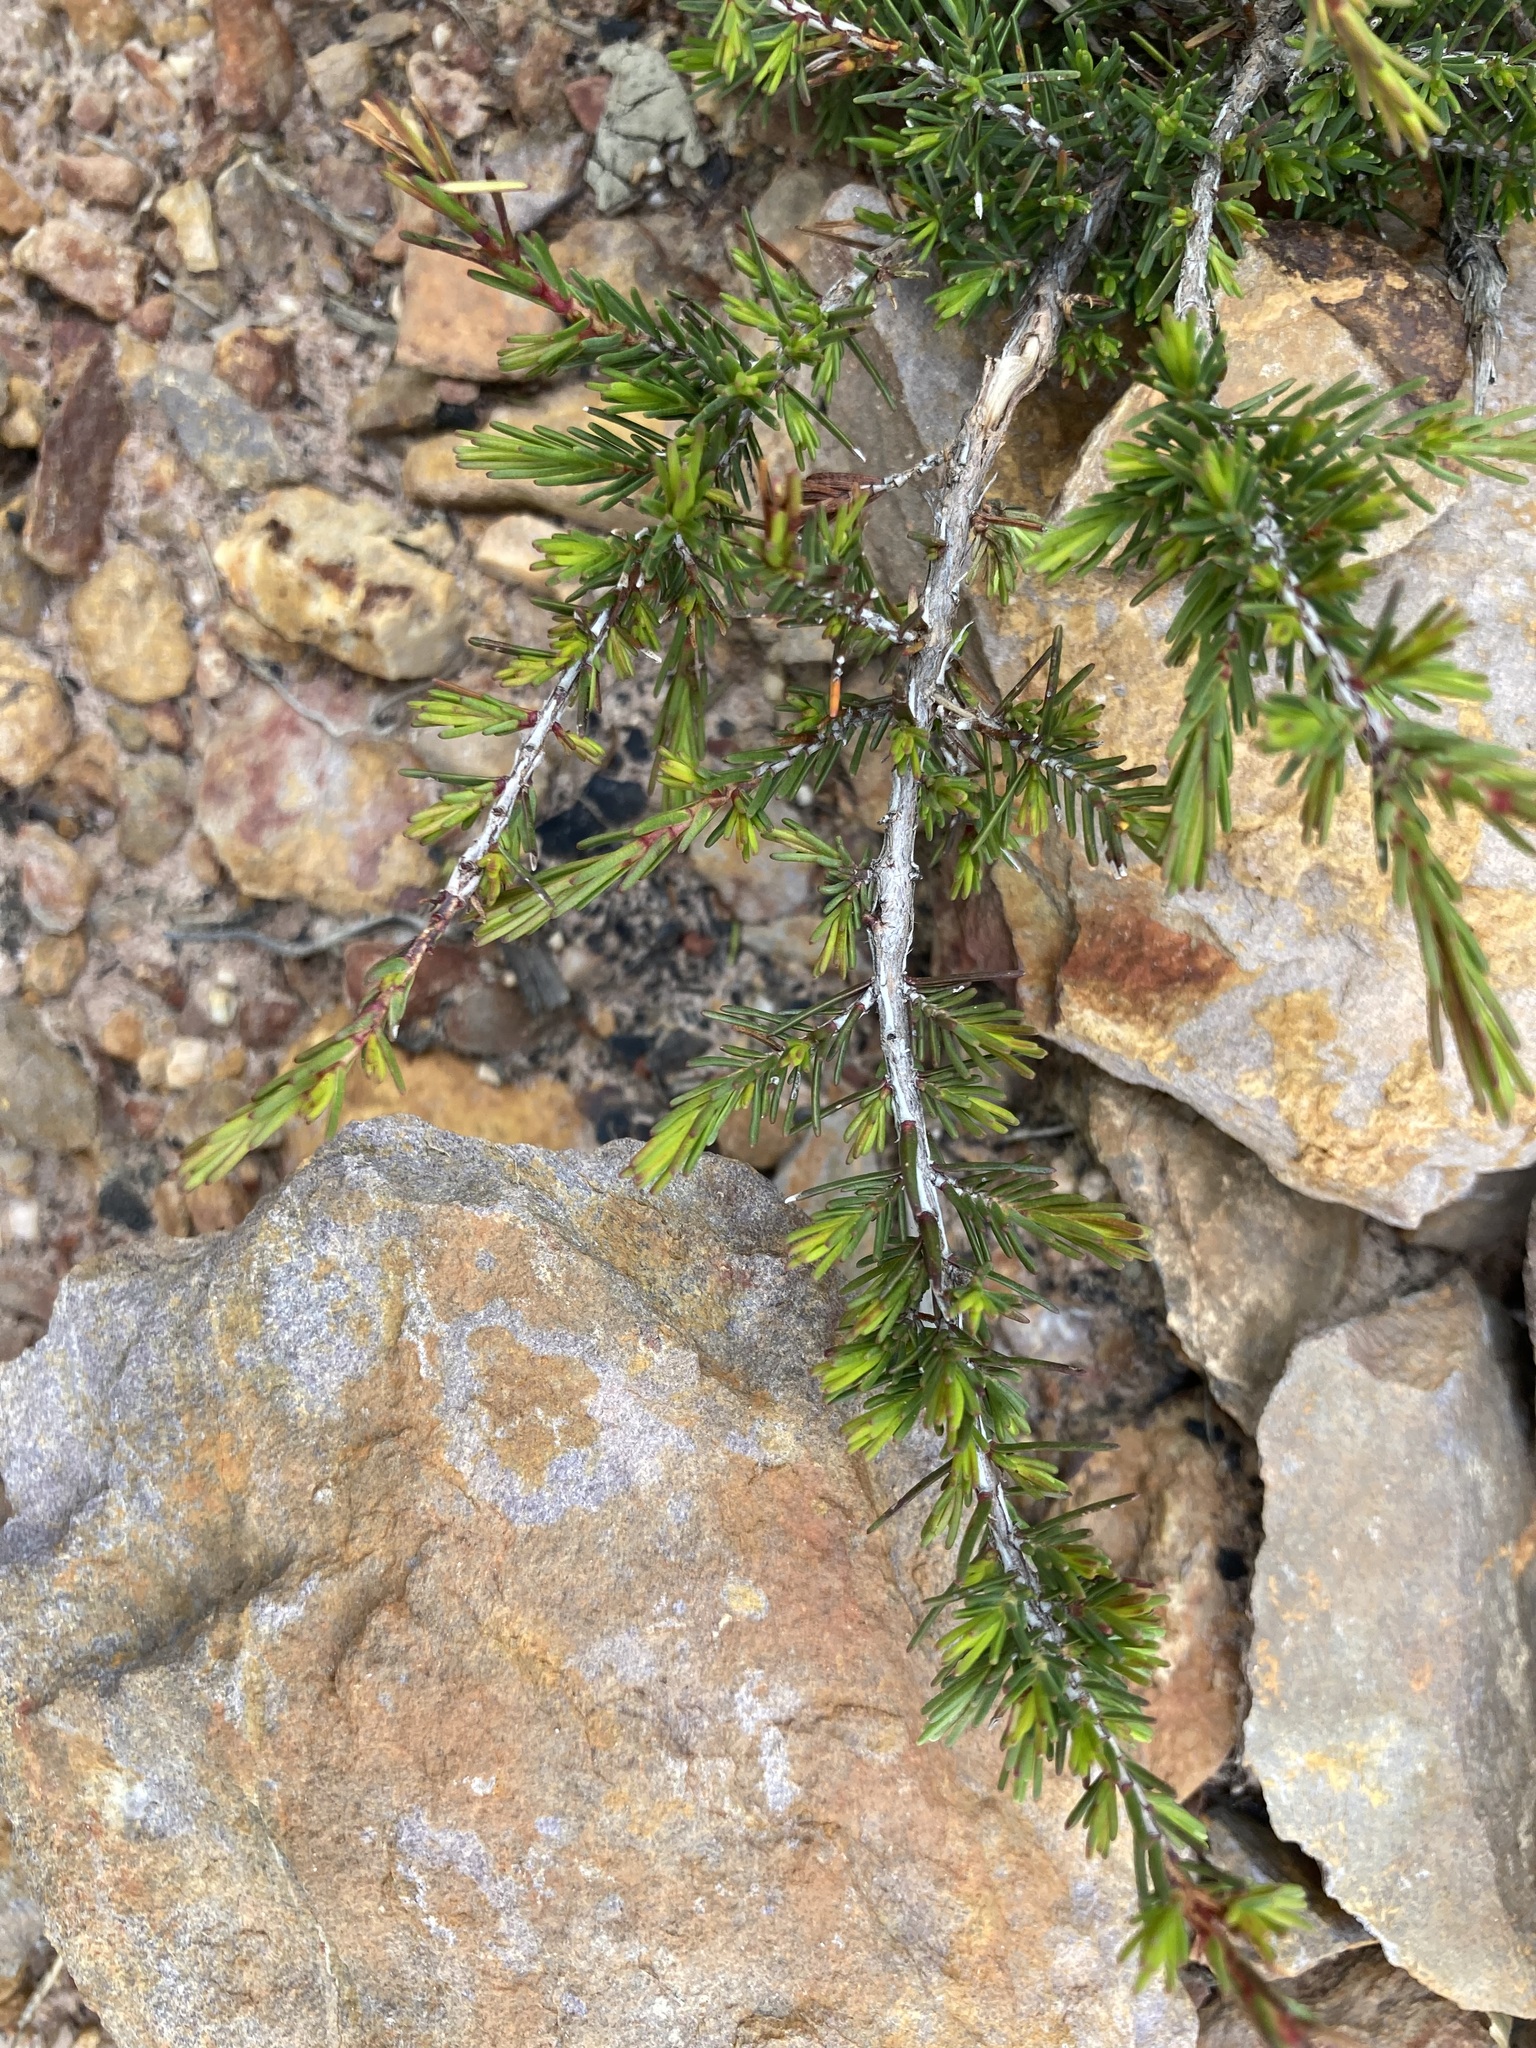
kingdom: Plantae
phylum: Tracheophyta
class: Magnoliopsida
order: Myrtales
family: Myrtaceae
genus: Melaleuca
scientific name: Melaleuca jonesii
